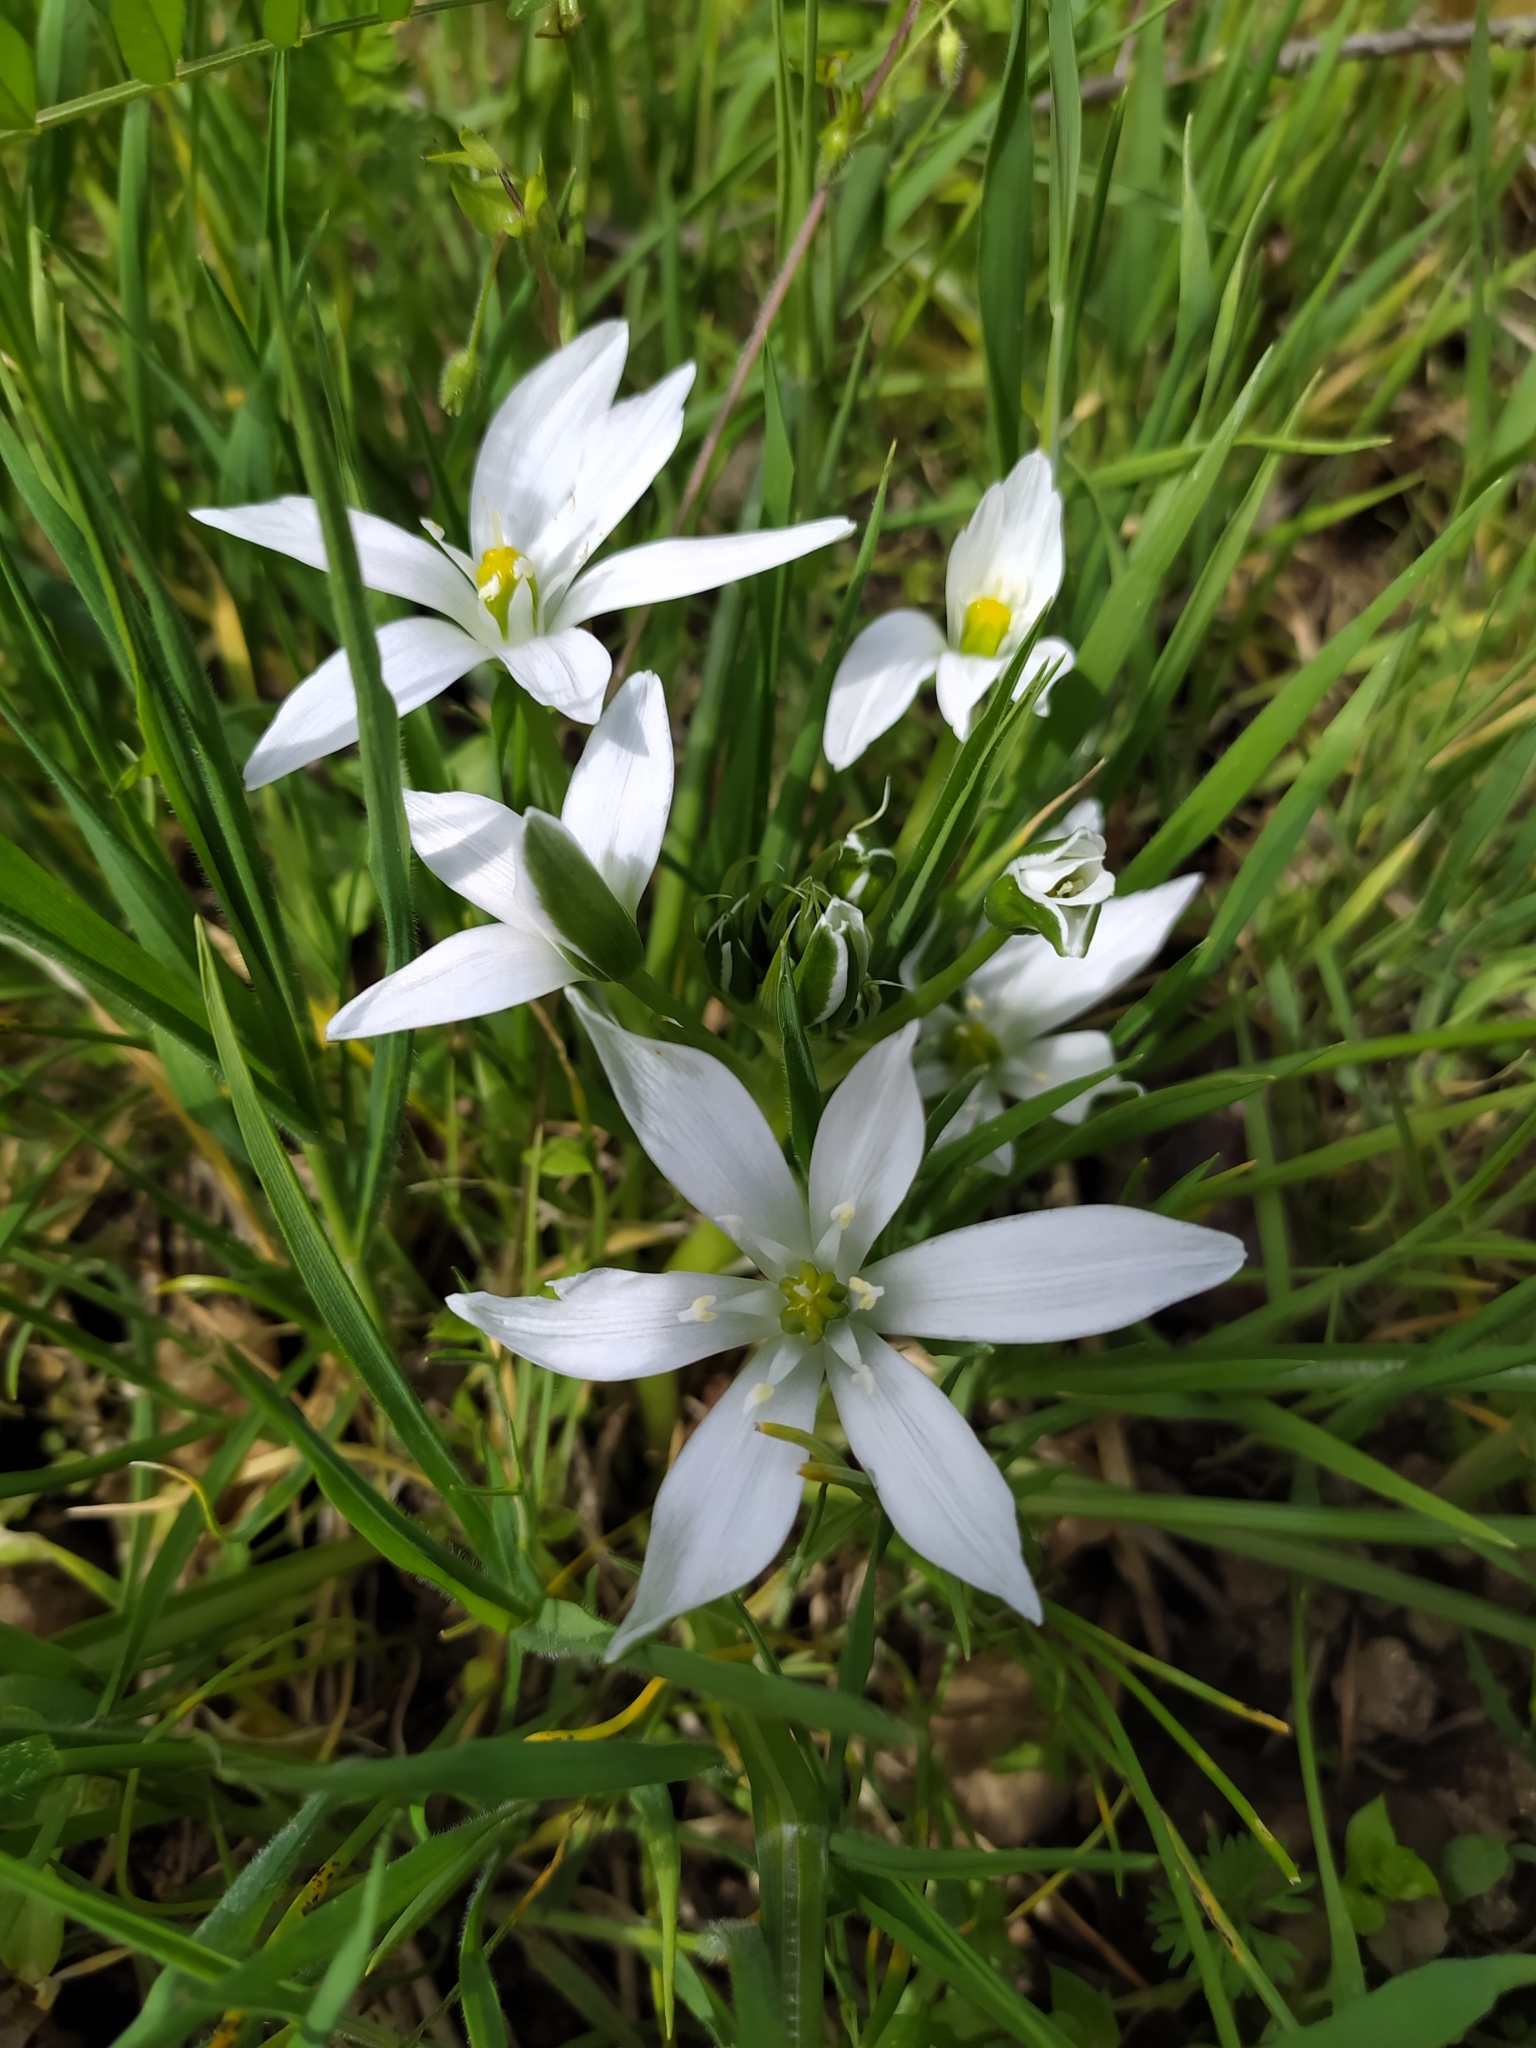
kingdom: Plantae
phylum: Tracheophyta
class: Liliopsida
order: Asparagales
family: Asparagaceae
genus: Ornithogalum
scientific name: Ornithogalum divergens
